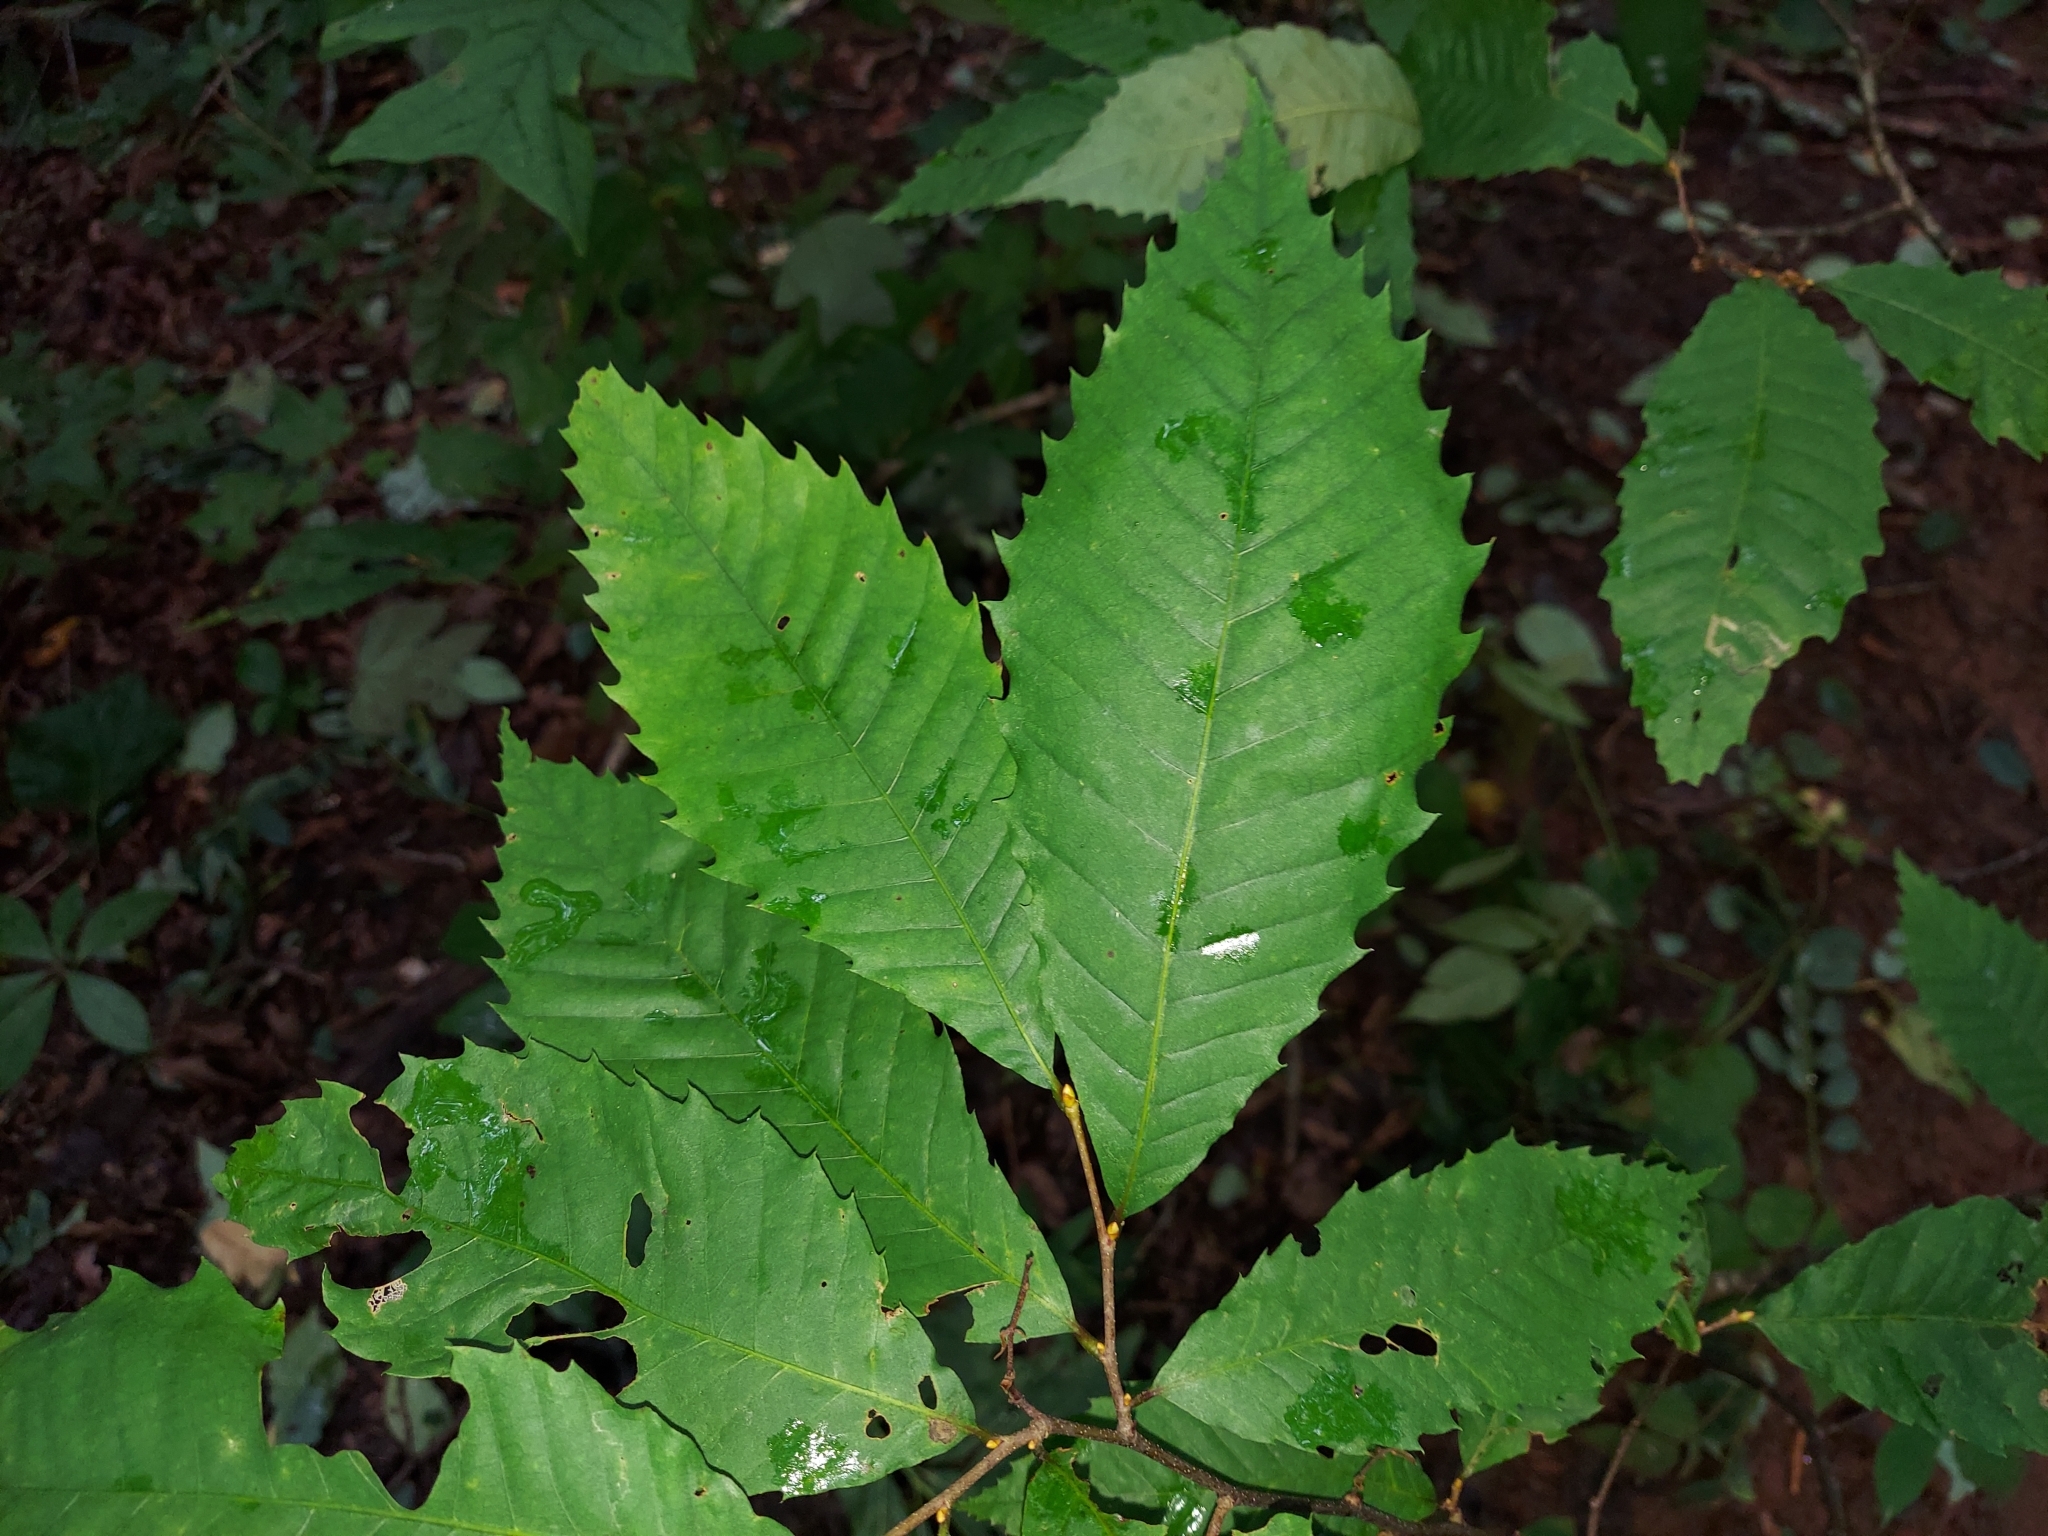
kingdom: Plantae
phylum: Tracheophyta
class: Magnoliopsida
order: Fagales
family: Fagaceae
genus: Castanea
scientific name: Castanea dentata
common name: American chestnut
